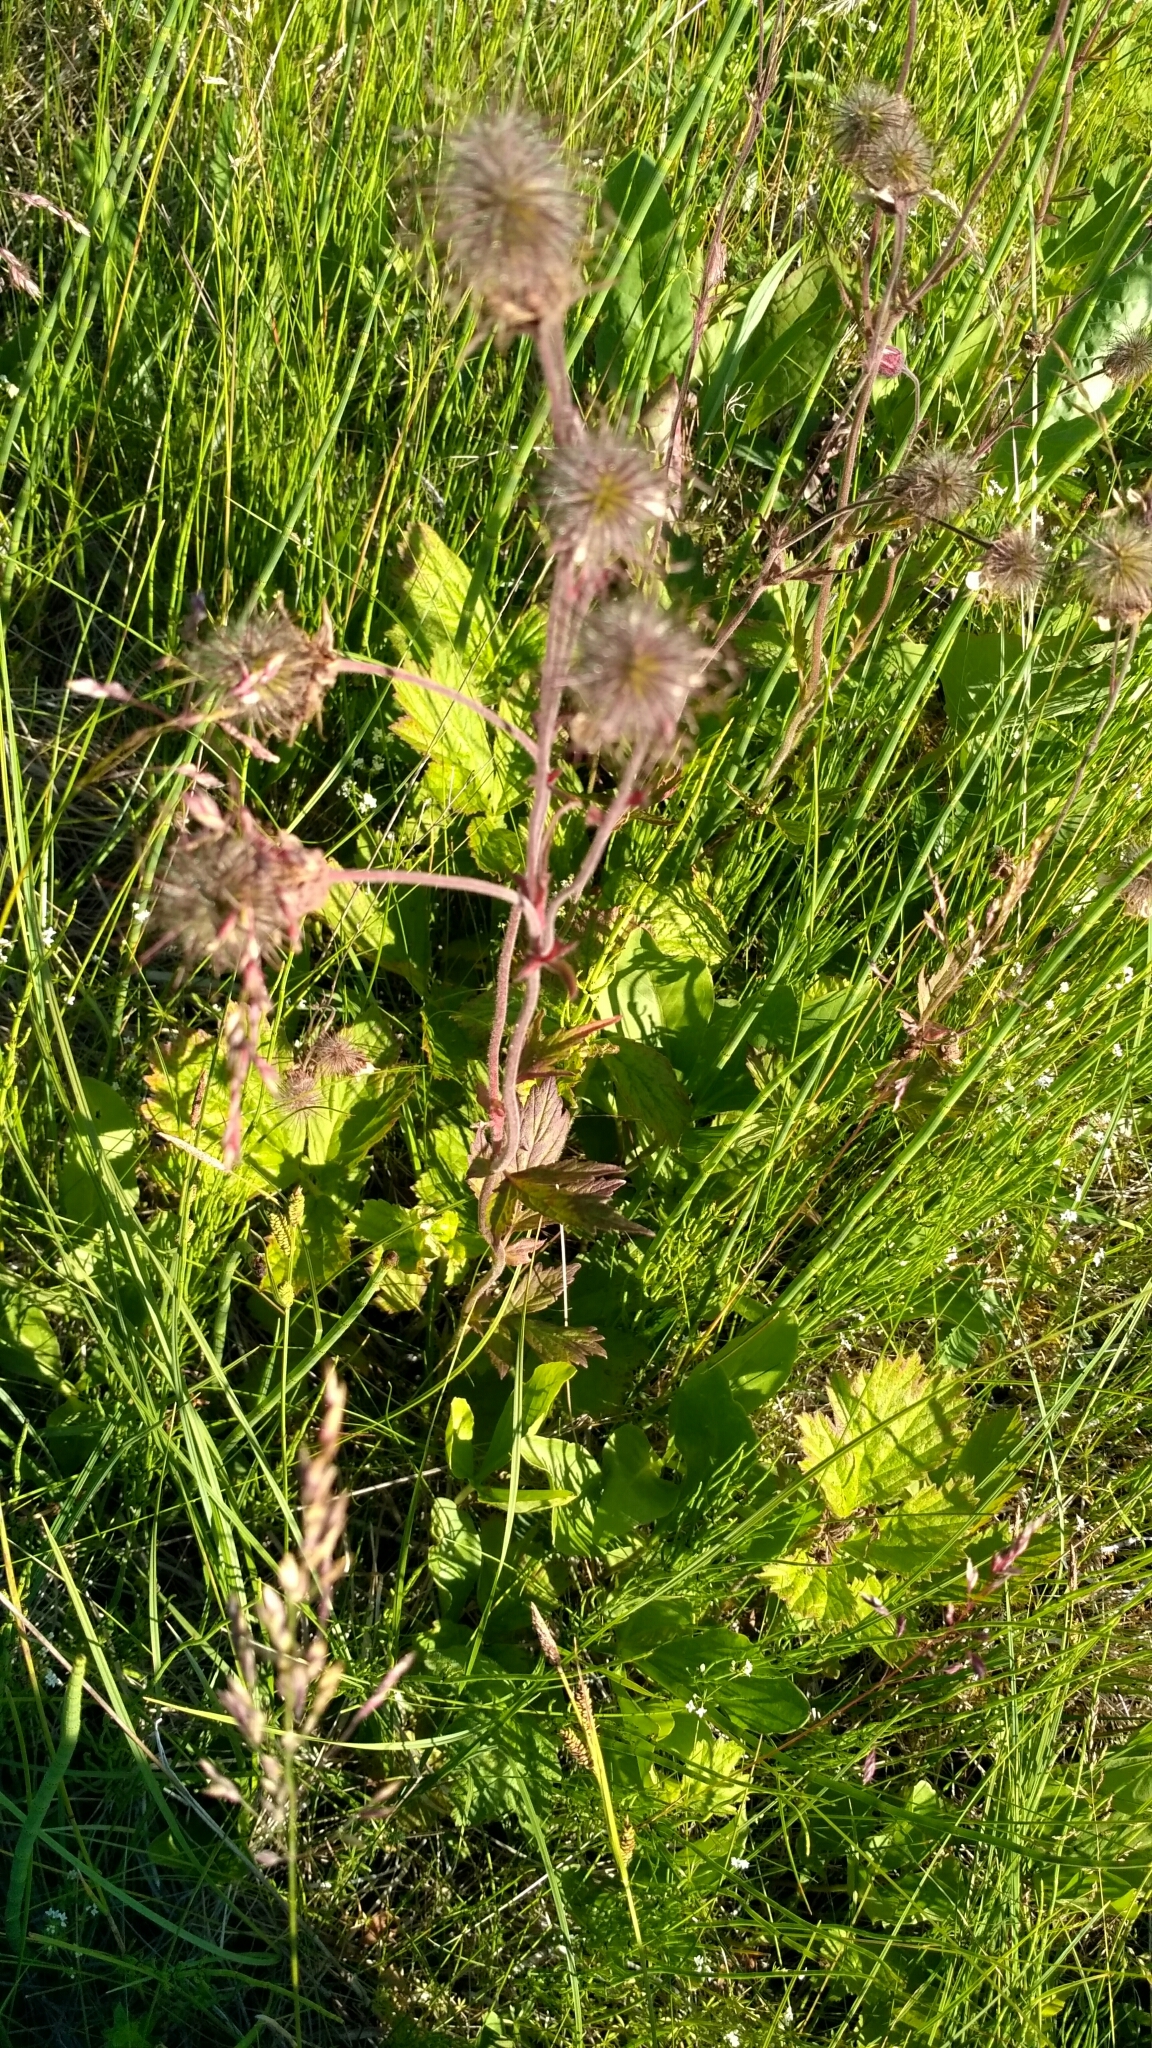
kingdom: Plantae
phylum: Tracheophyta
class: Magnoliopsida
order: Rosales
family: Rosaceae
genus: Geum
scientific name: Geum rivale
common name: Water avens
